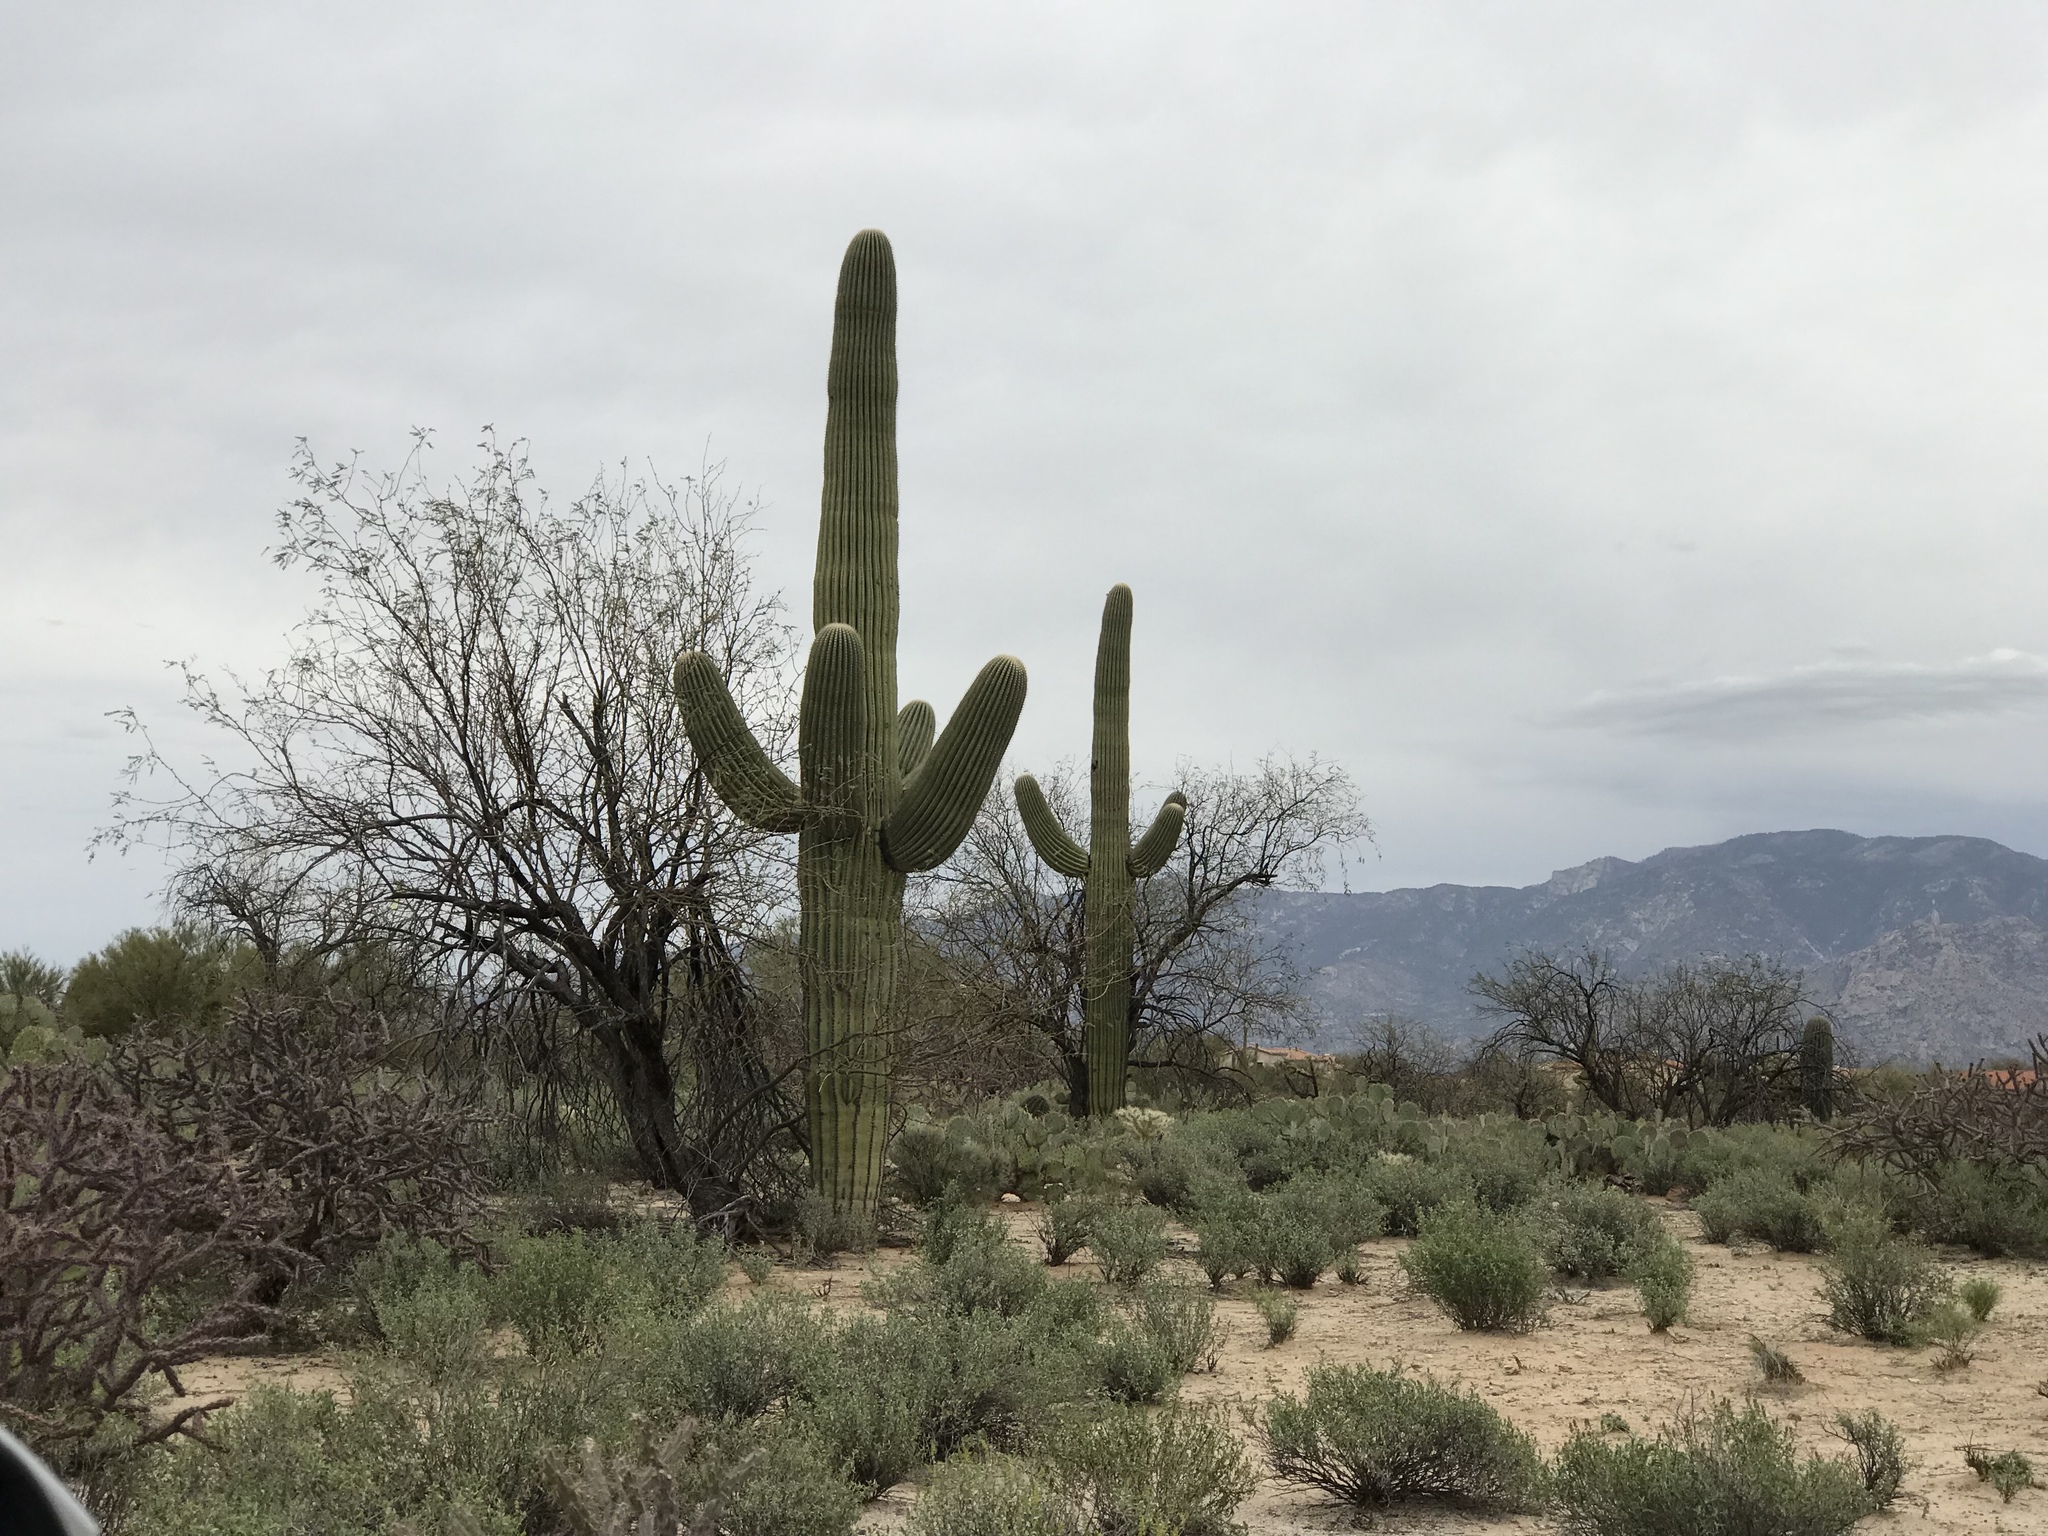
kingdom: Plantae
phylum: Tracheophyta
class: Magnoliopsida
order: Caryophyllales
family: Cactaceae
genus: Carnegiea
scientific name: Carnegiea gigantea
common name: Saguaro
